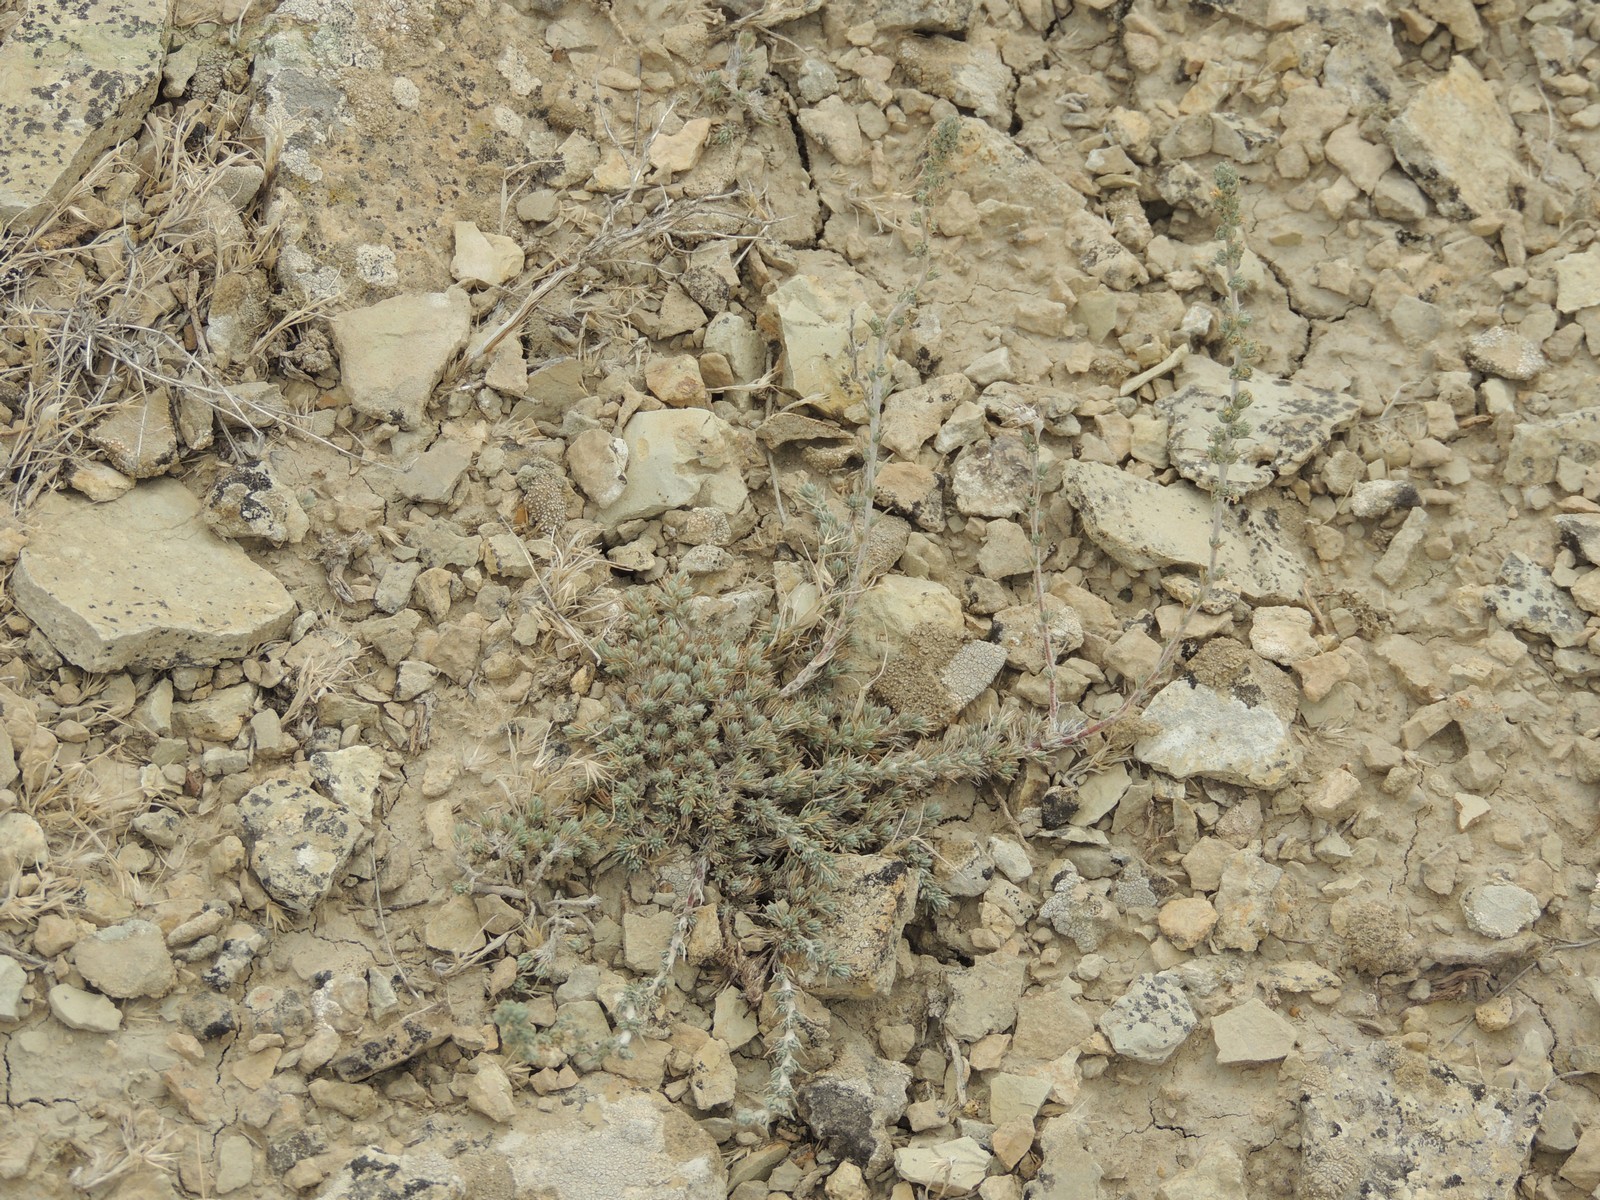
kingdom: Plantae
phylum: Tracheophyta
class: Magnoliopsida
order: Caryophyllales
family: Amaranthaceae
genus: Camphorosma
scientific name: Camphorosma monspeliaca
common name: Camphorfume
